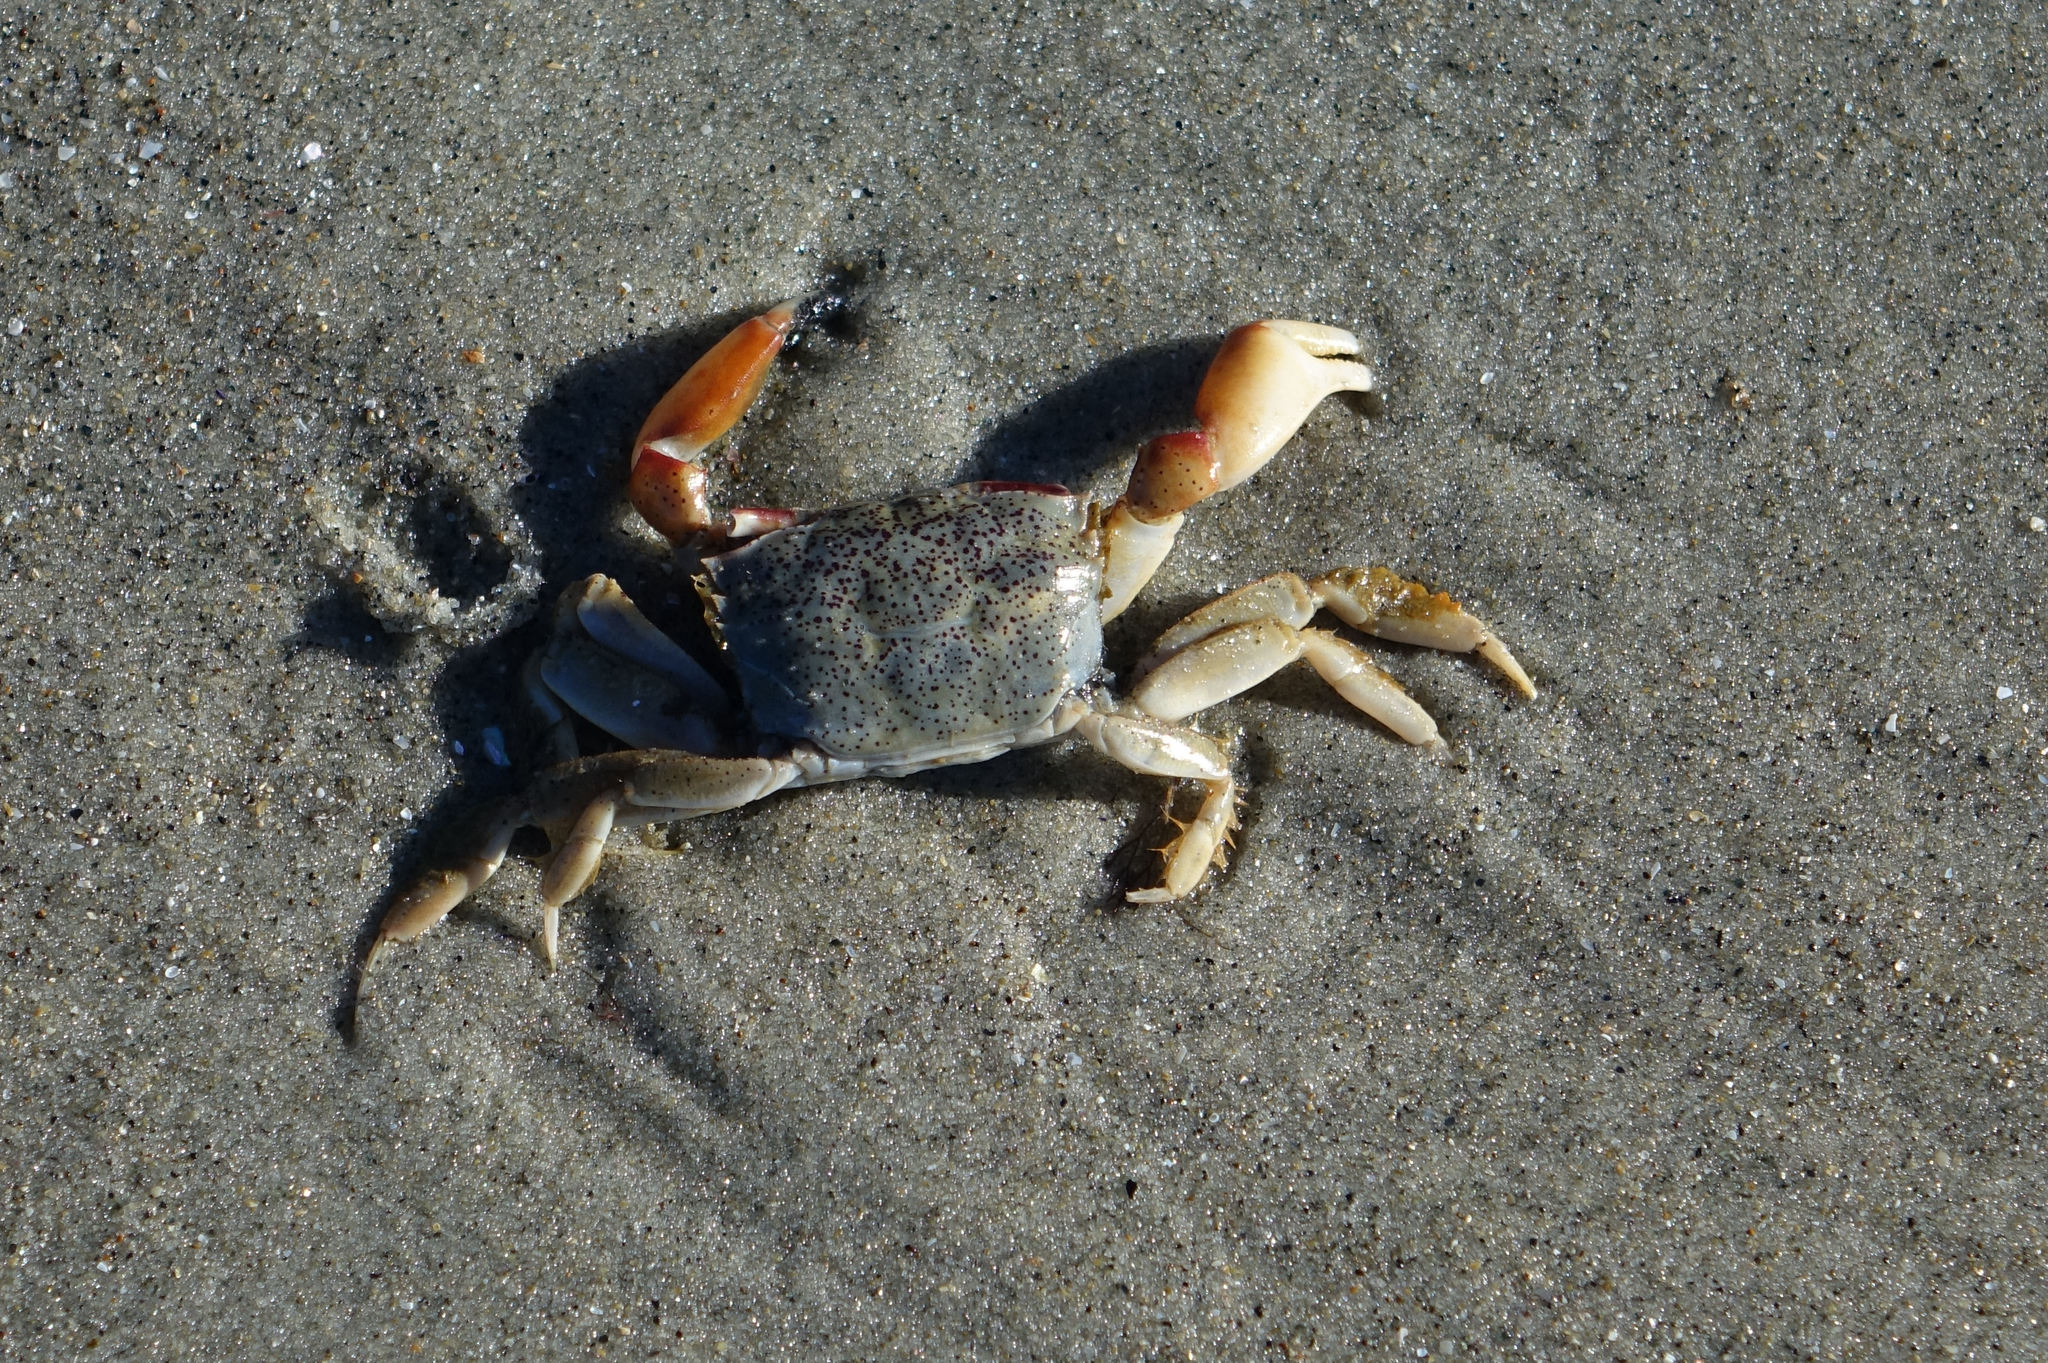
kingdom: Animalia
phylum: Arthropoda
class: Malacostraca
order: Decapoda
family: Macrophthalmidae
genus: Hemiplax
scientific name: Hemiplax hirtipes
